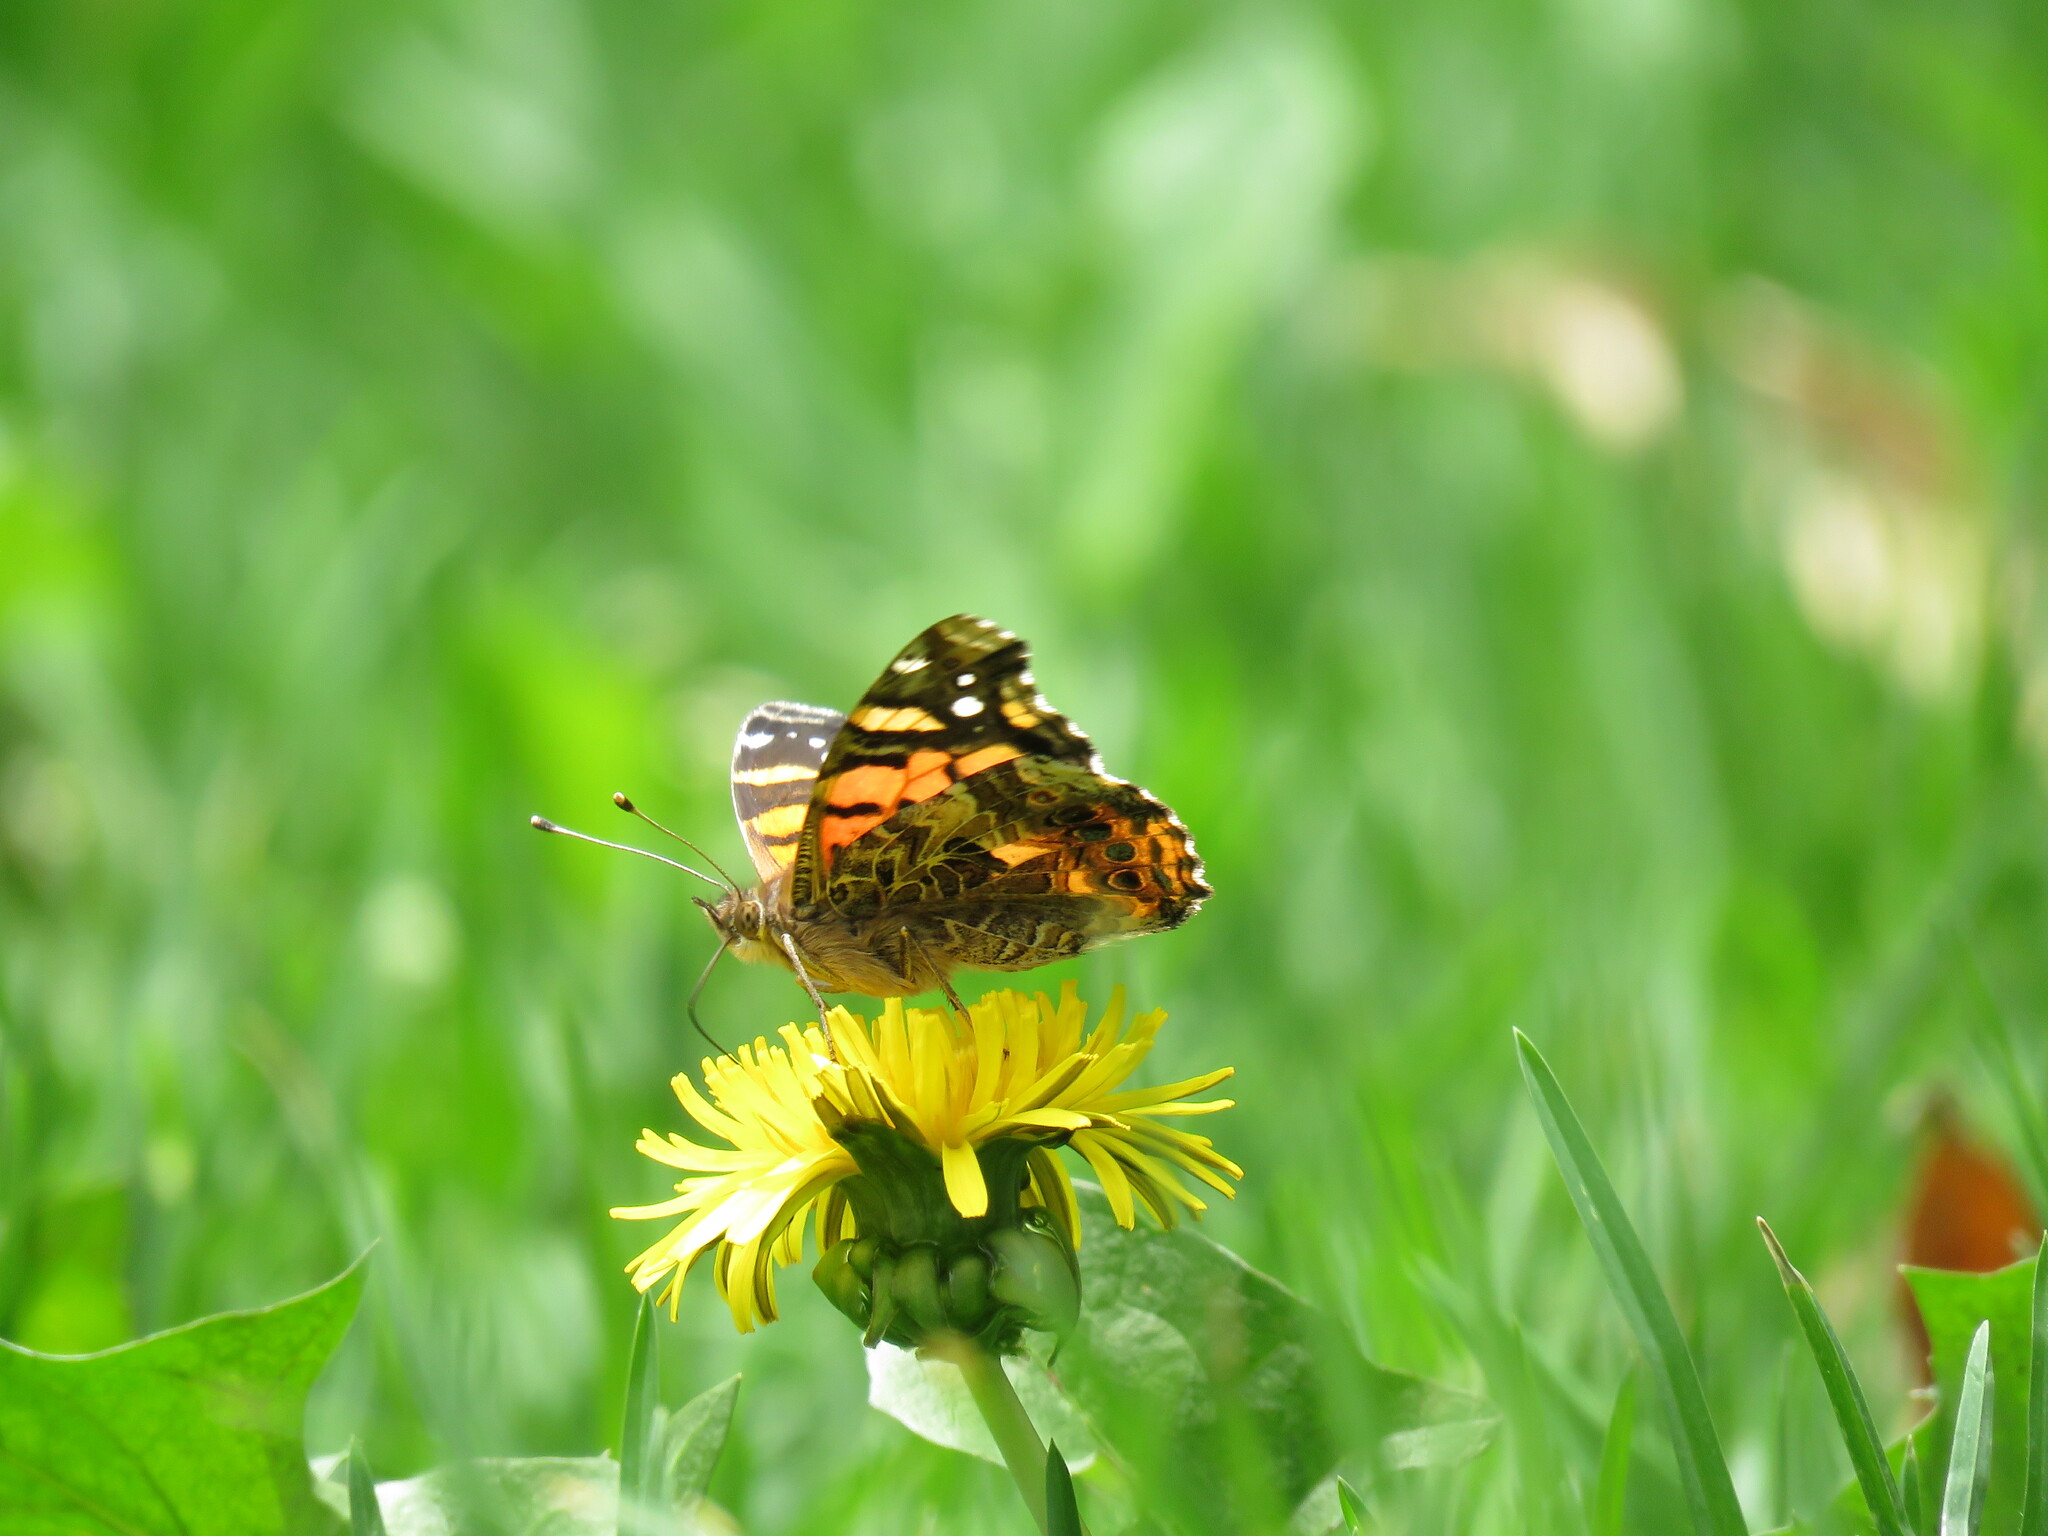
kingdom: Animalia
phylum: Arthropoda
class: Insecta
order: Lepidoptera
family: Nymphalidae
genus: Vanessa
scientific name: Vanessa carye
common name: Subtropical lady
